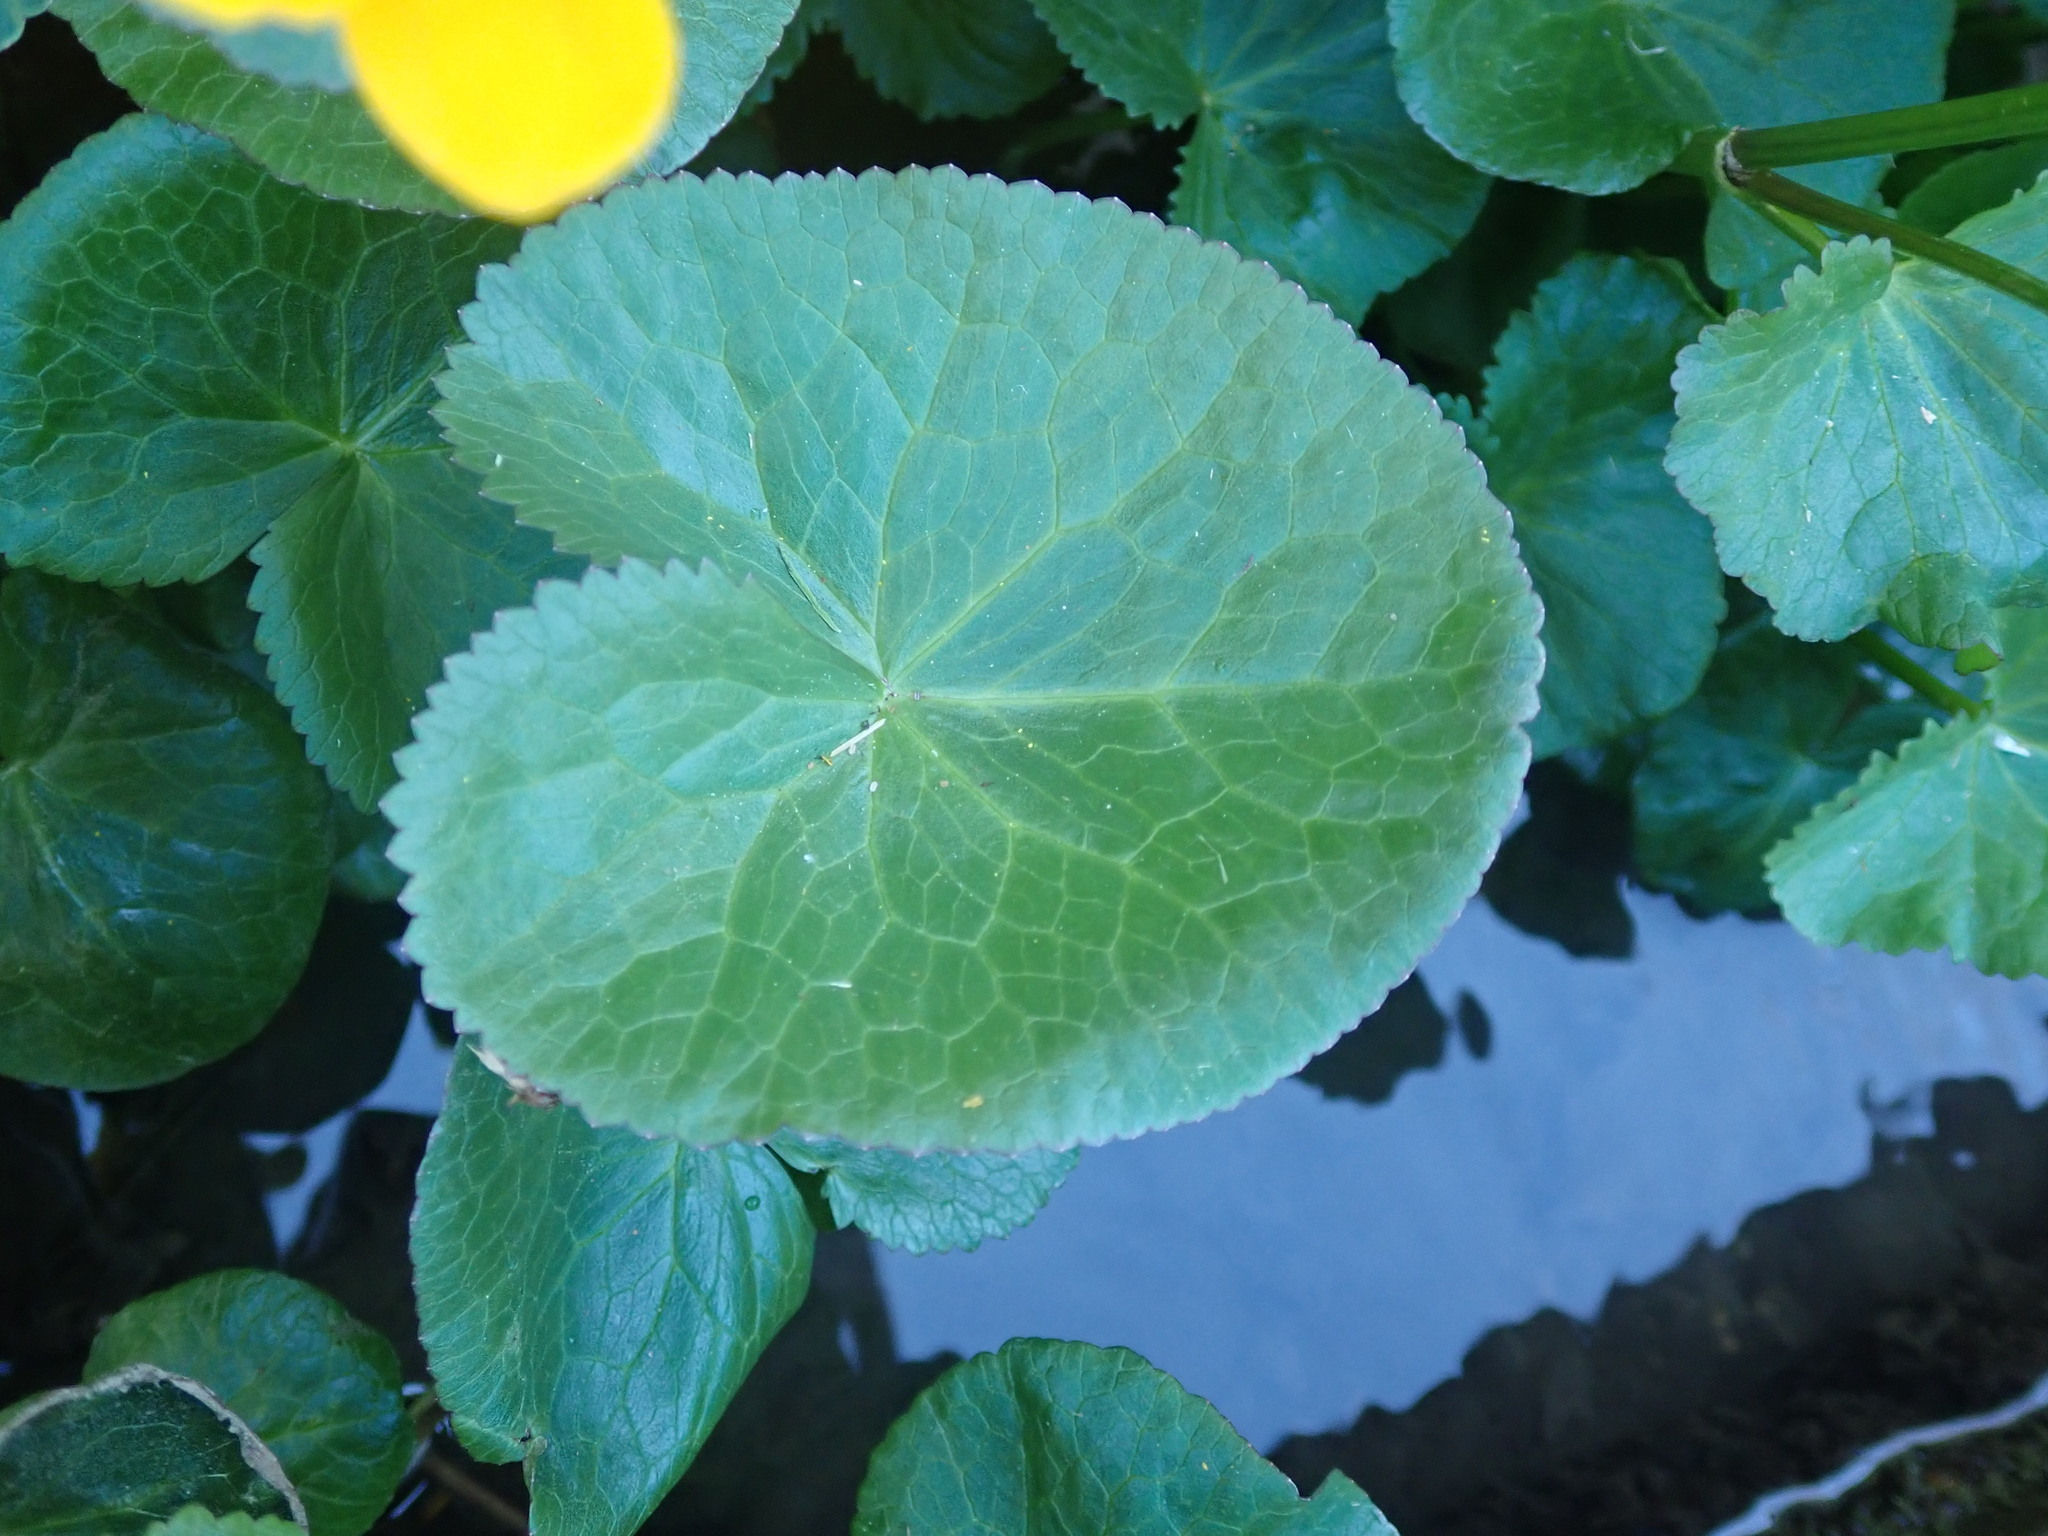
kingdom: Plantae
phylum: Tracheophyta
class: Magnoliopsida
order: Ranunculales
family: Ranunculaceae
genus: Caltha
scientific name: Caltha palustris
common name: Marsh marigold
